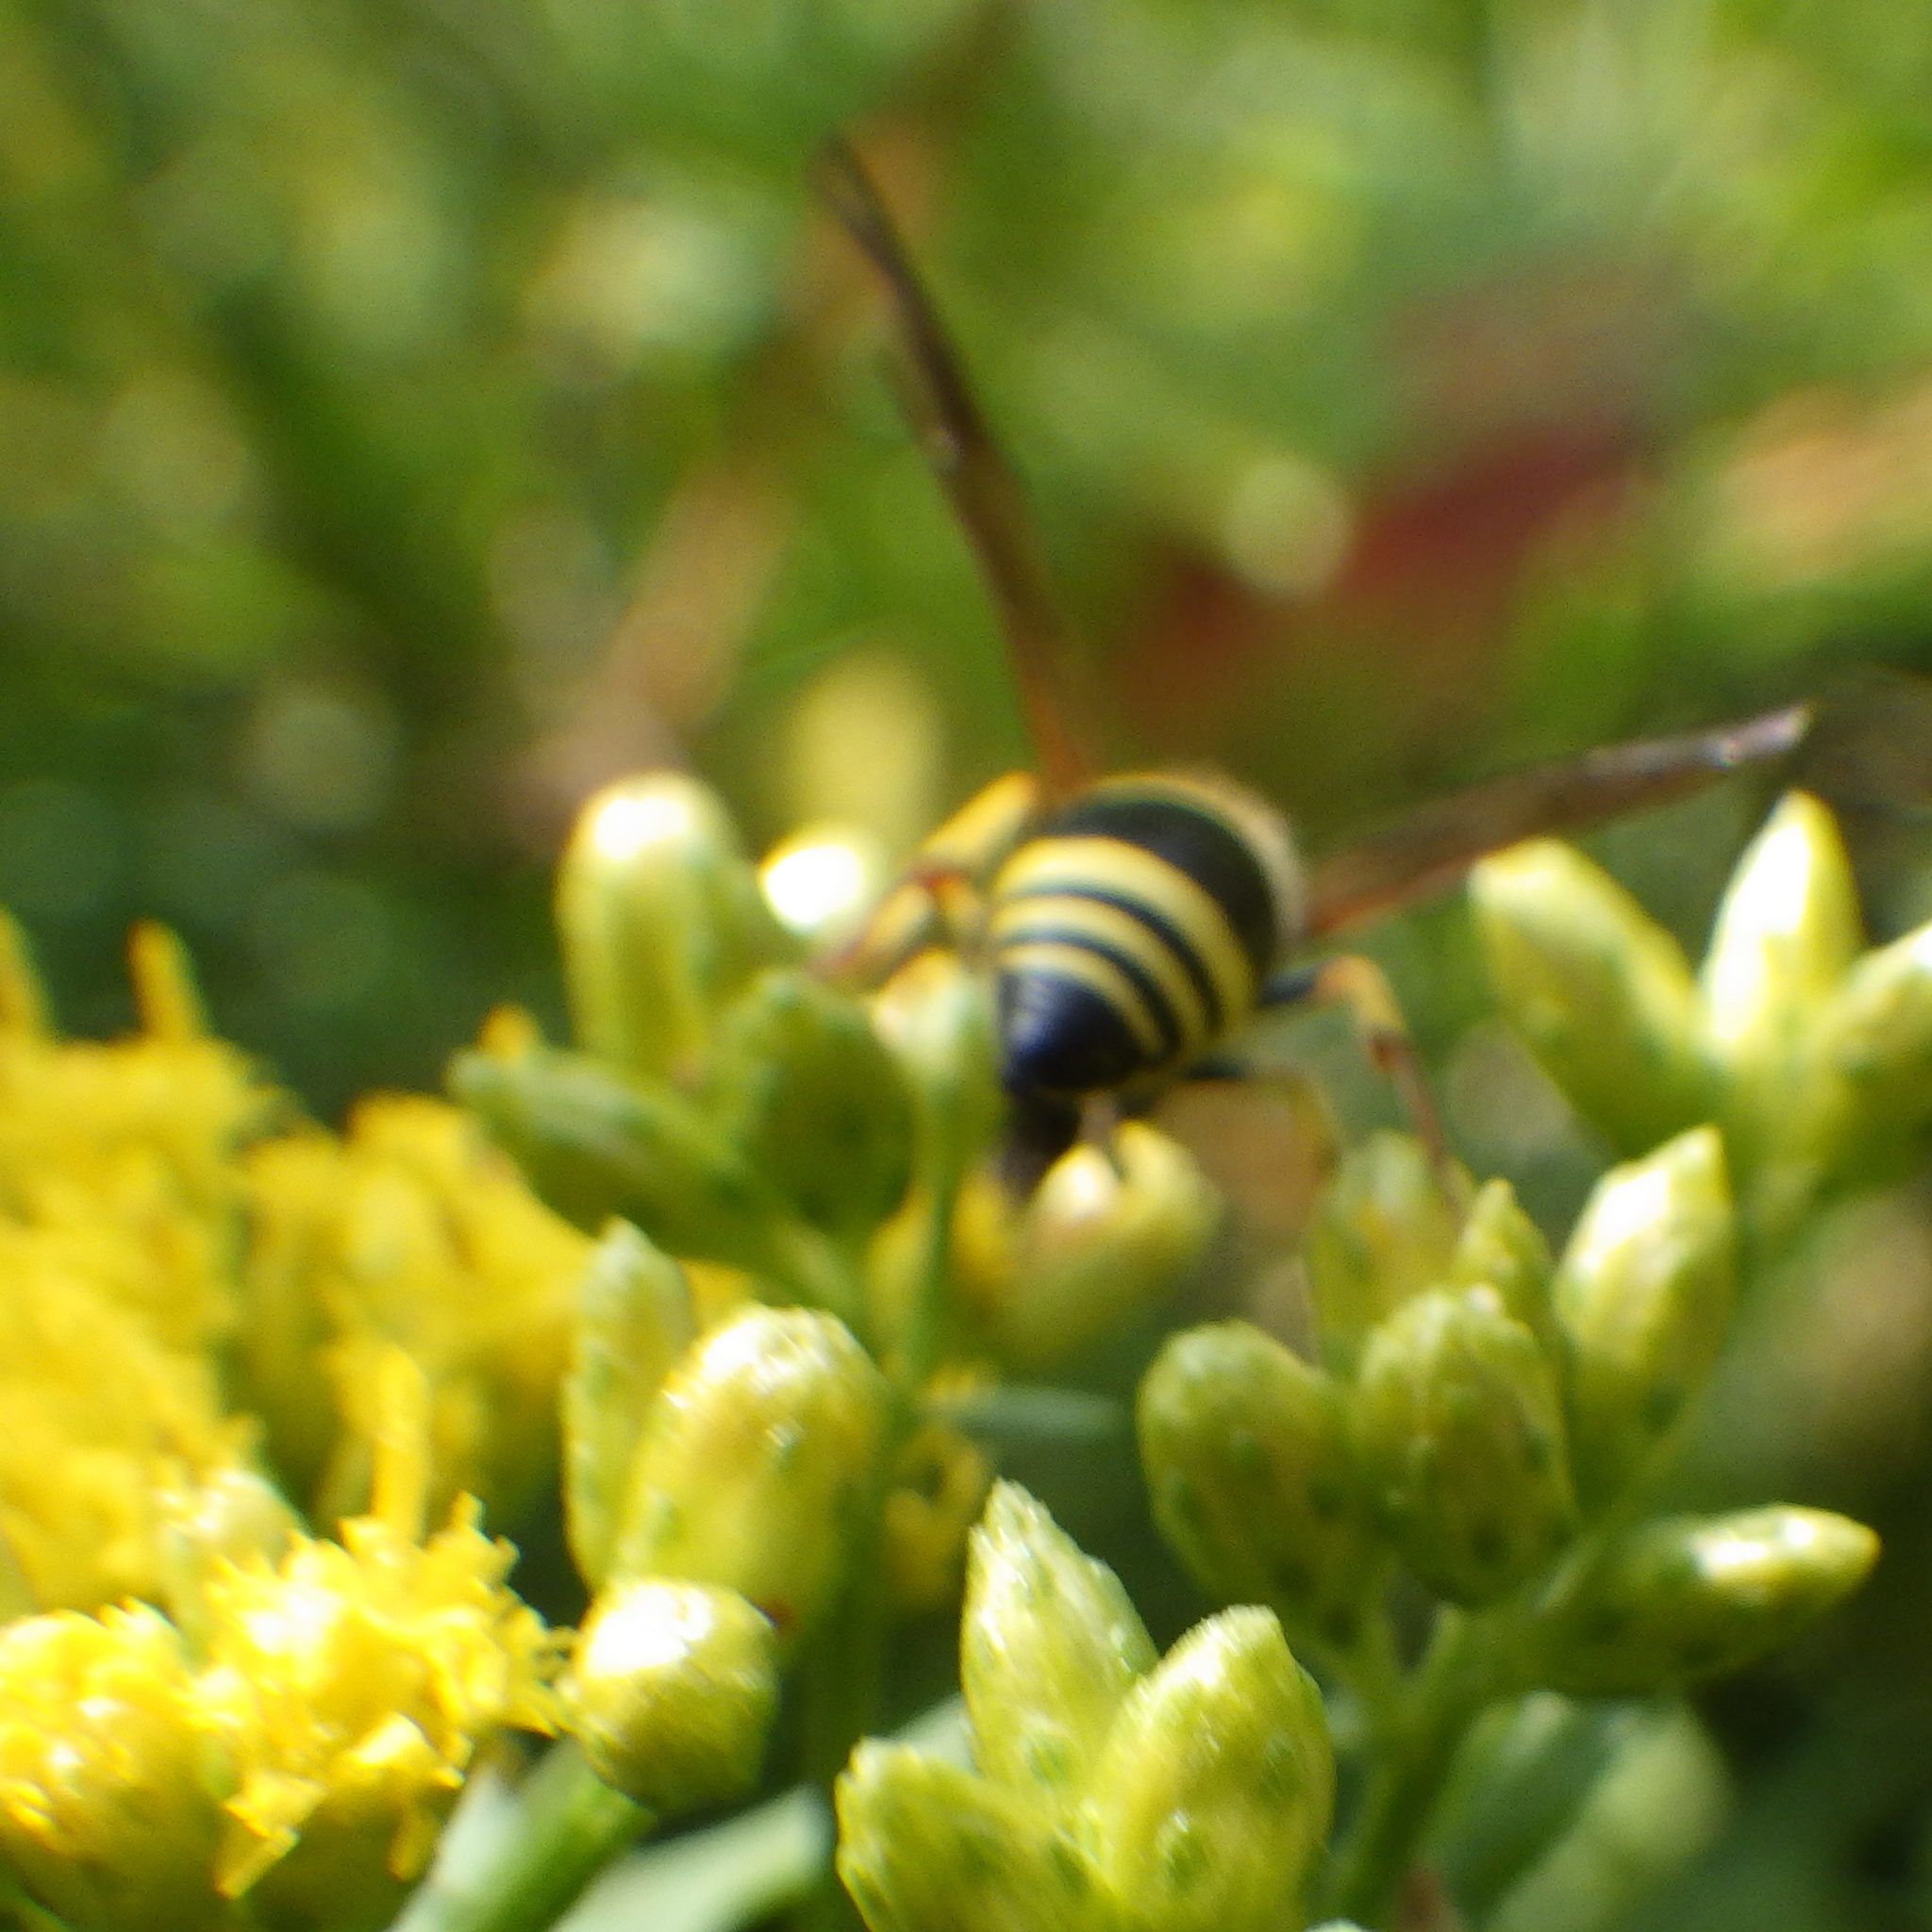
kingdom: Animalia
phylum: Arthropoda
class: Insecta
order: Hymenoptera
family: Vespidae
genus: Ancistrocerus
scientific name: Ancistrocerus gazella
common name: European tube wasp
